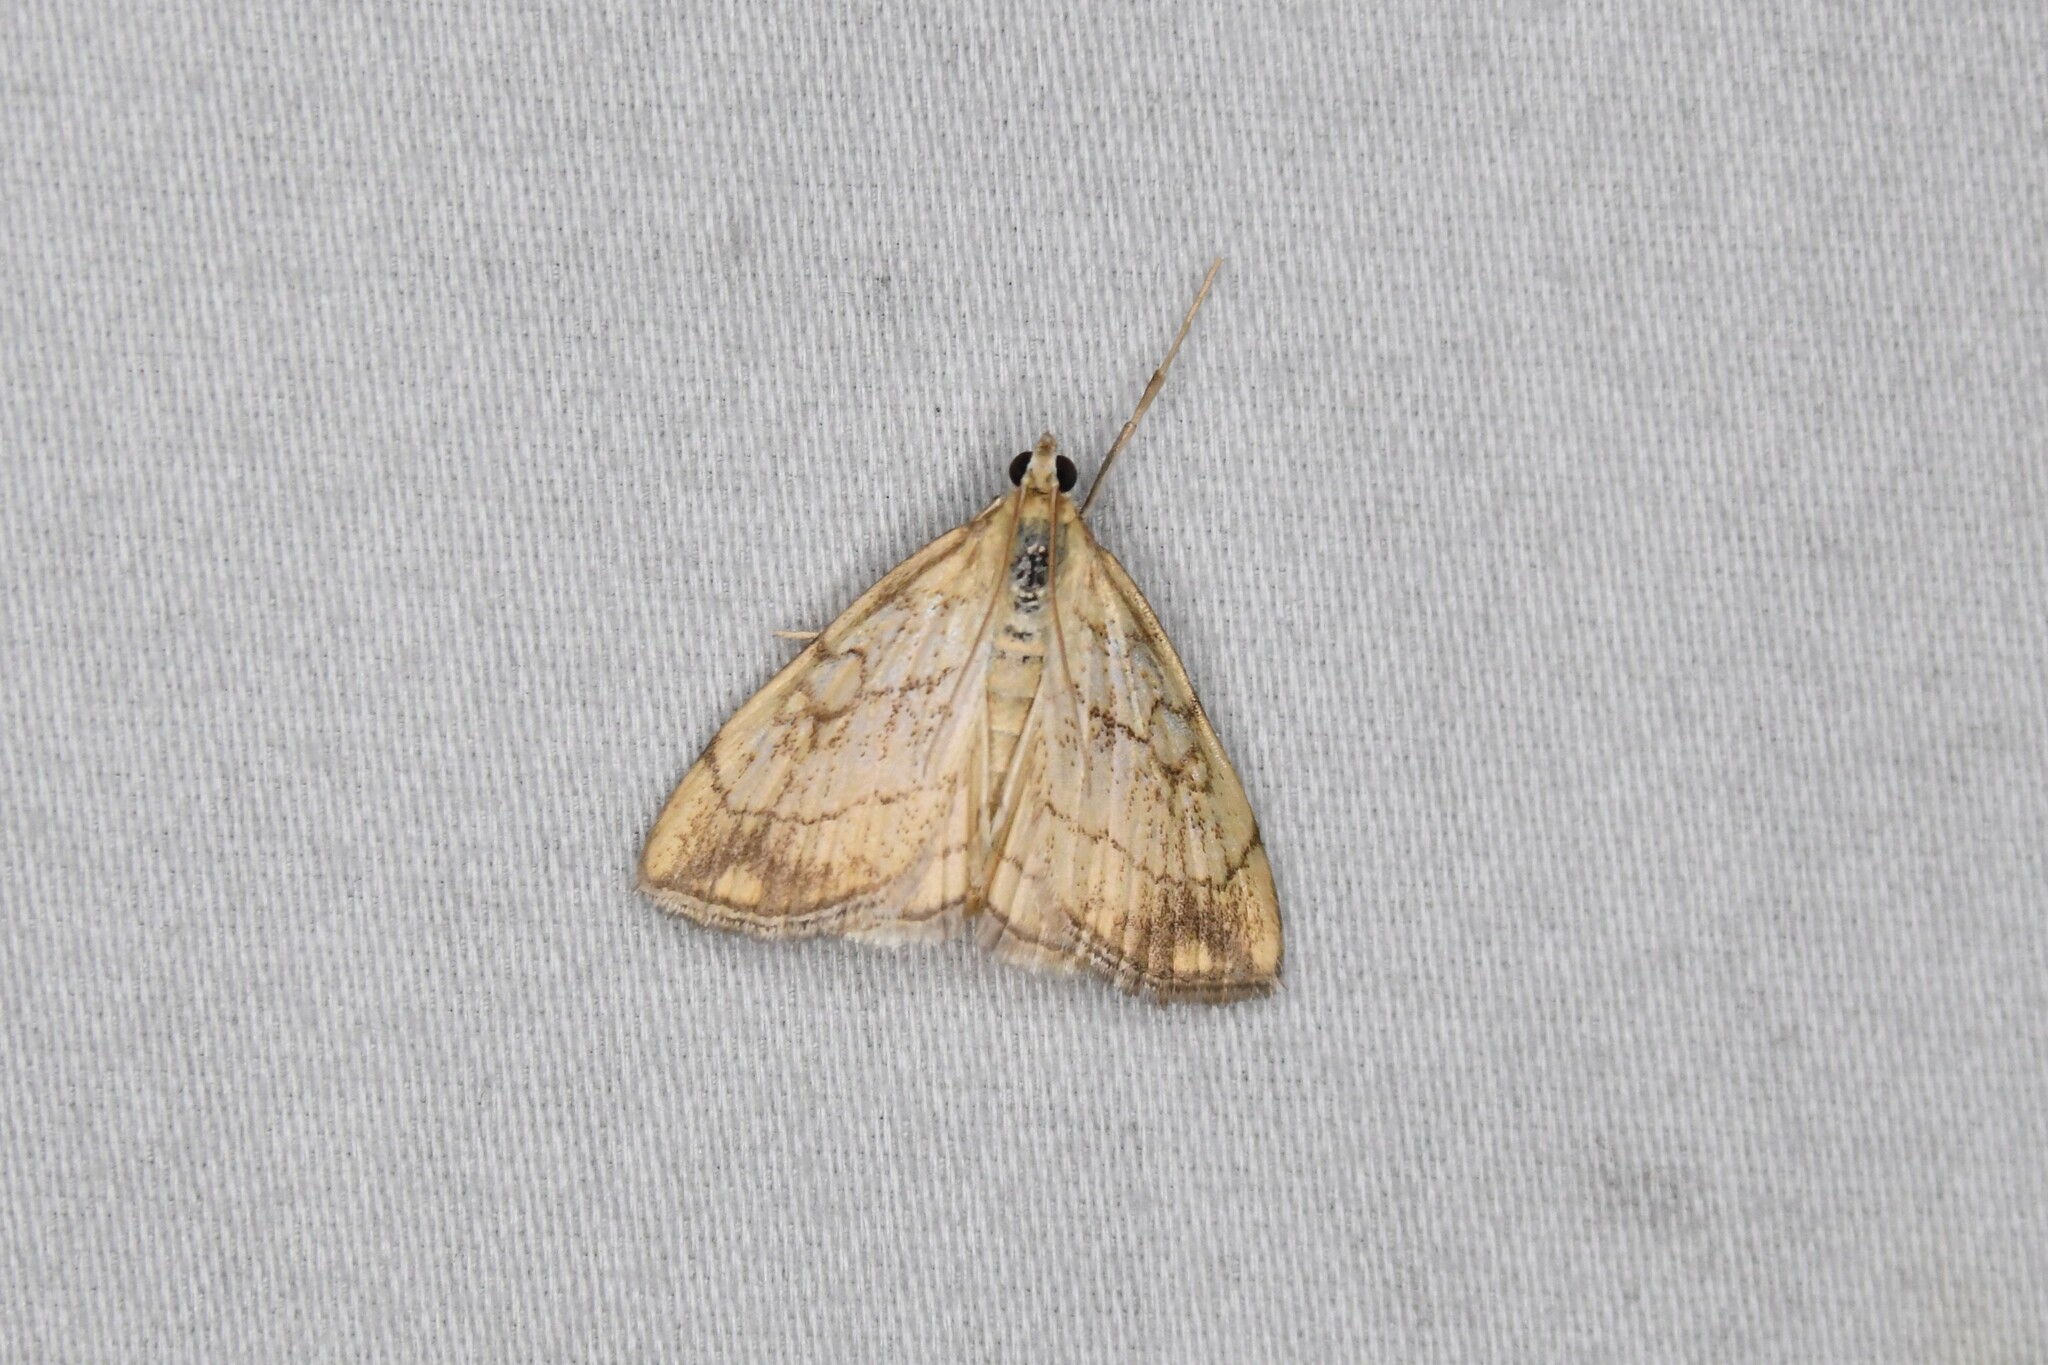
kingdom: Animalia
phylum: Arthropoda
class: Insecta
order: Lepidoptera
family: Crambidae
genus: Evergestis
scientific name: Evergestis pallidata
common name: Chequered pearl
